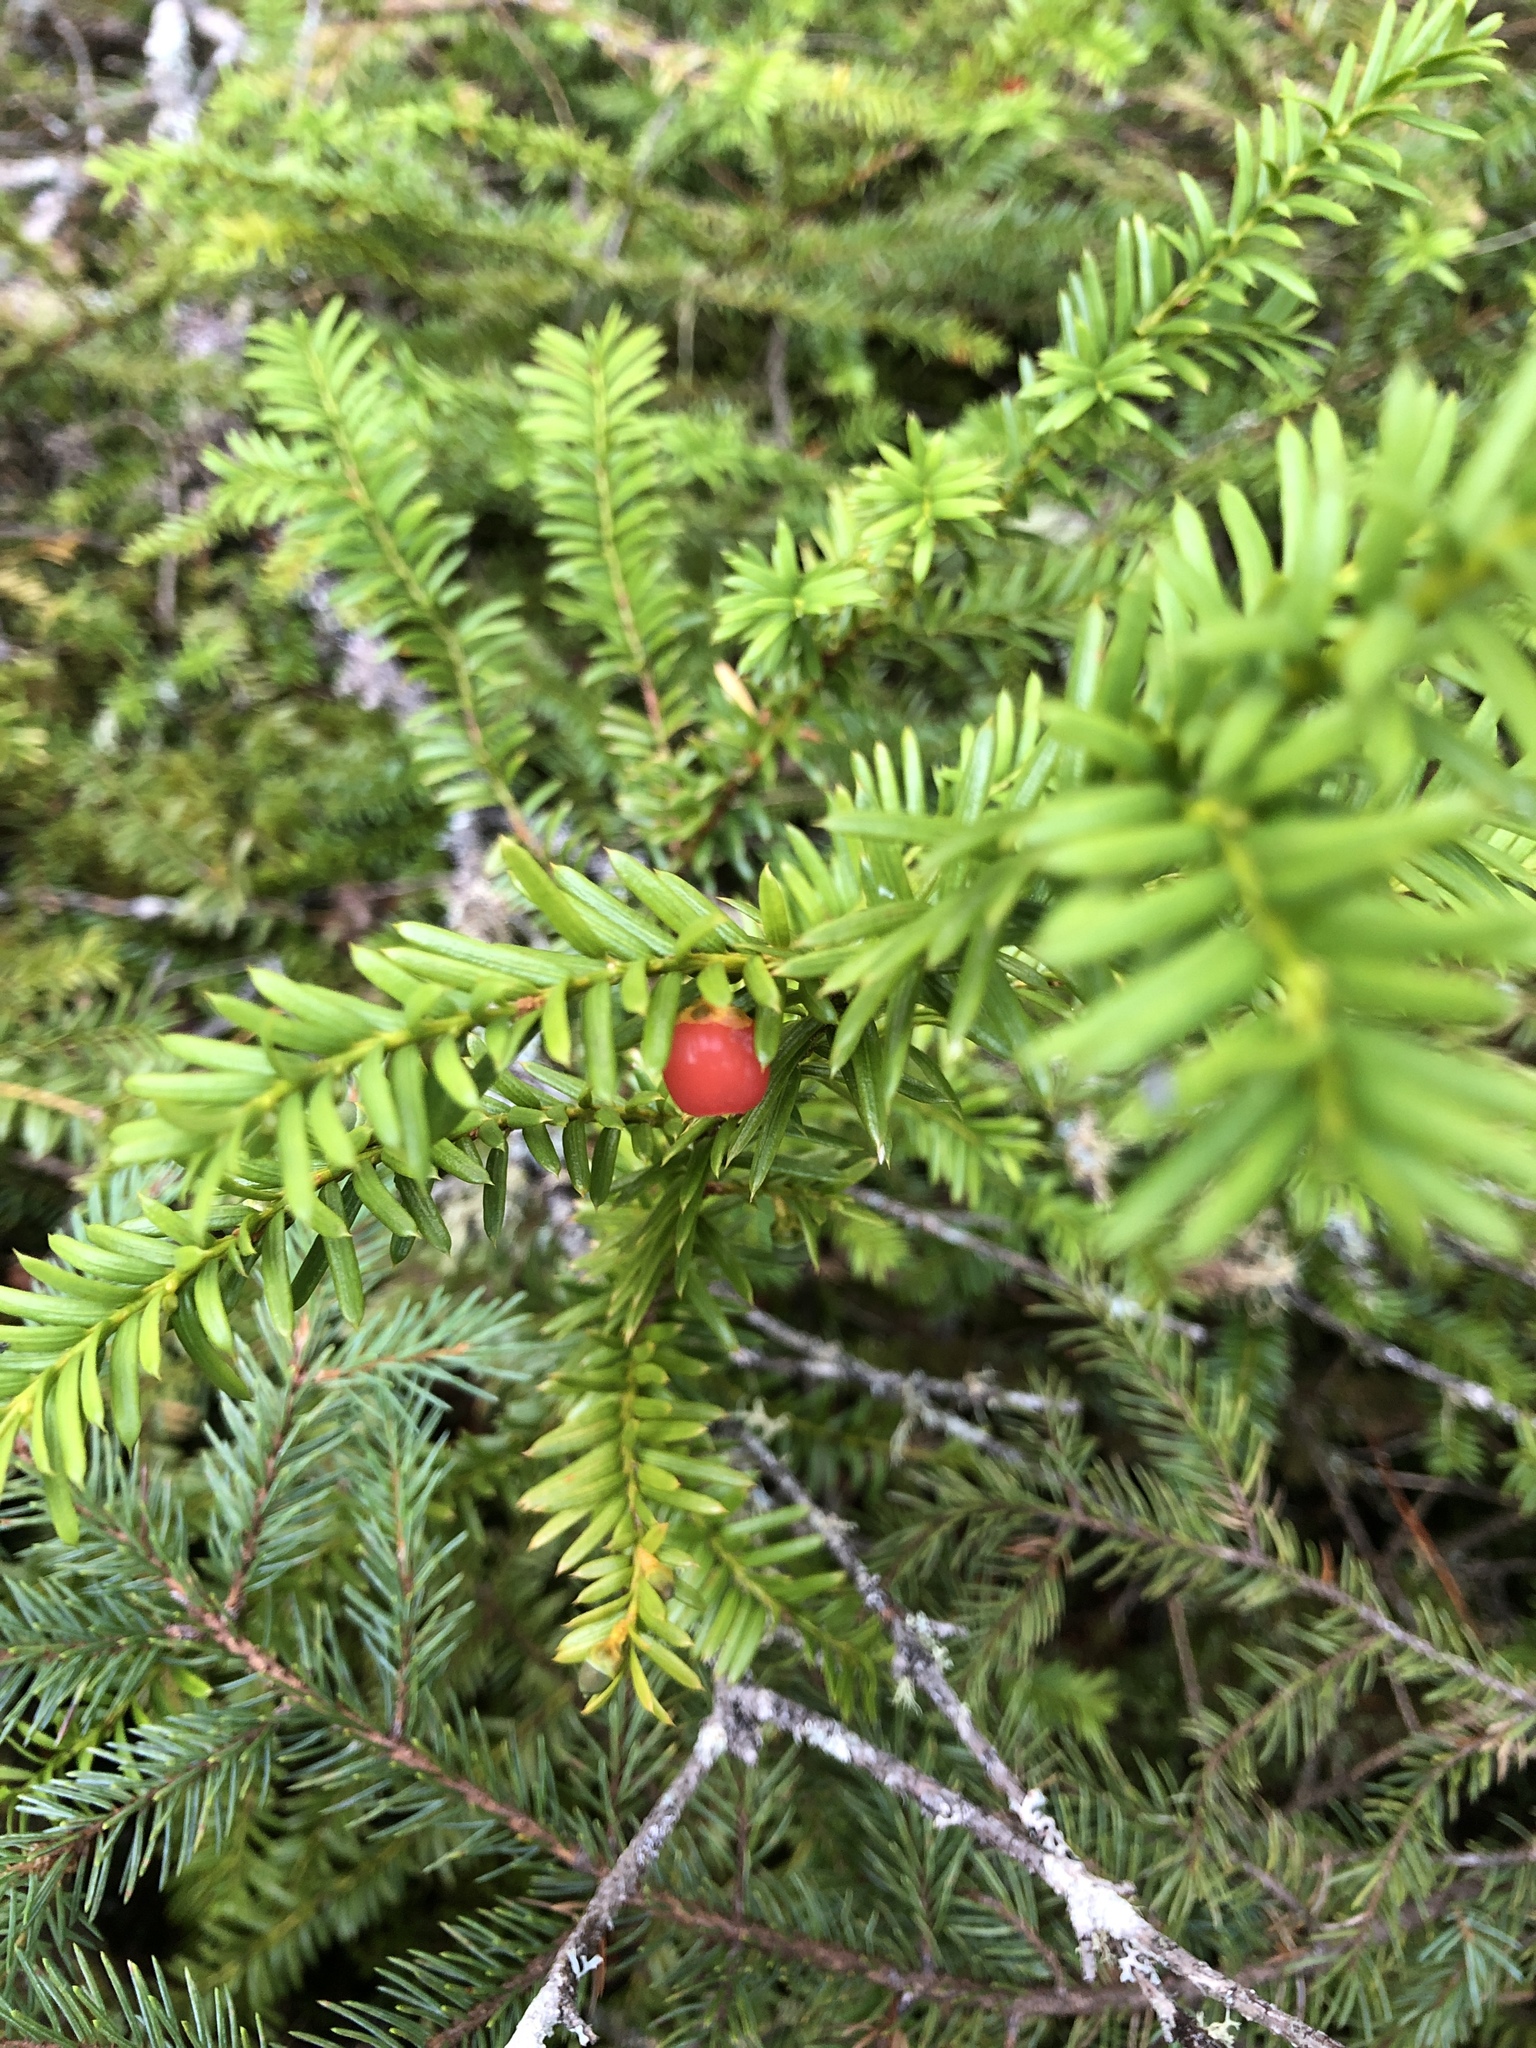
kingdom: Plantae
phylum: Tracheophyta
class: Pinopsida
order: Pinales
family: Taxaceae
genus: Taxus
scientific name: Taxus canadensis
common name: American yew
